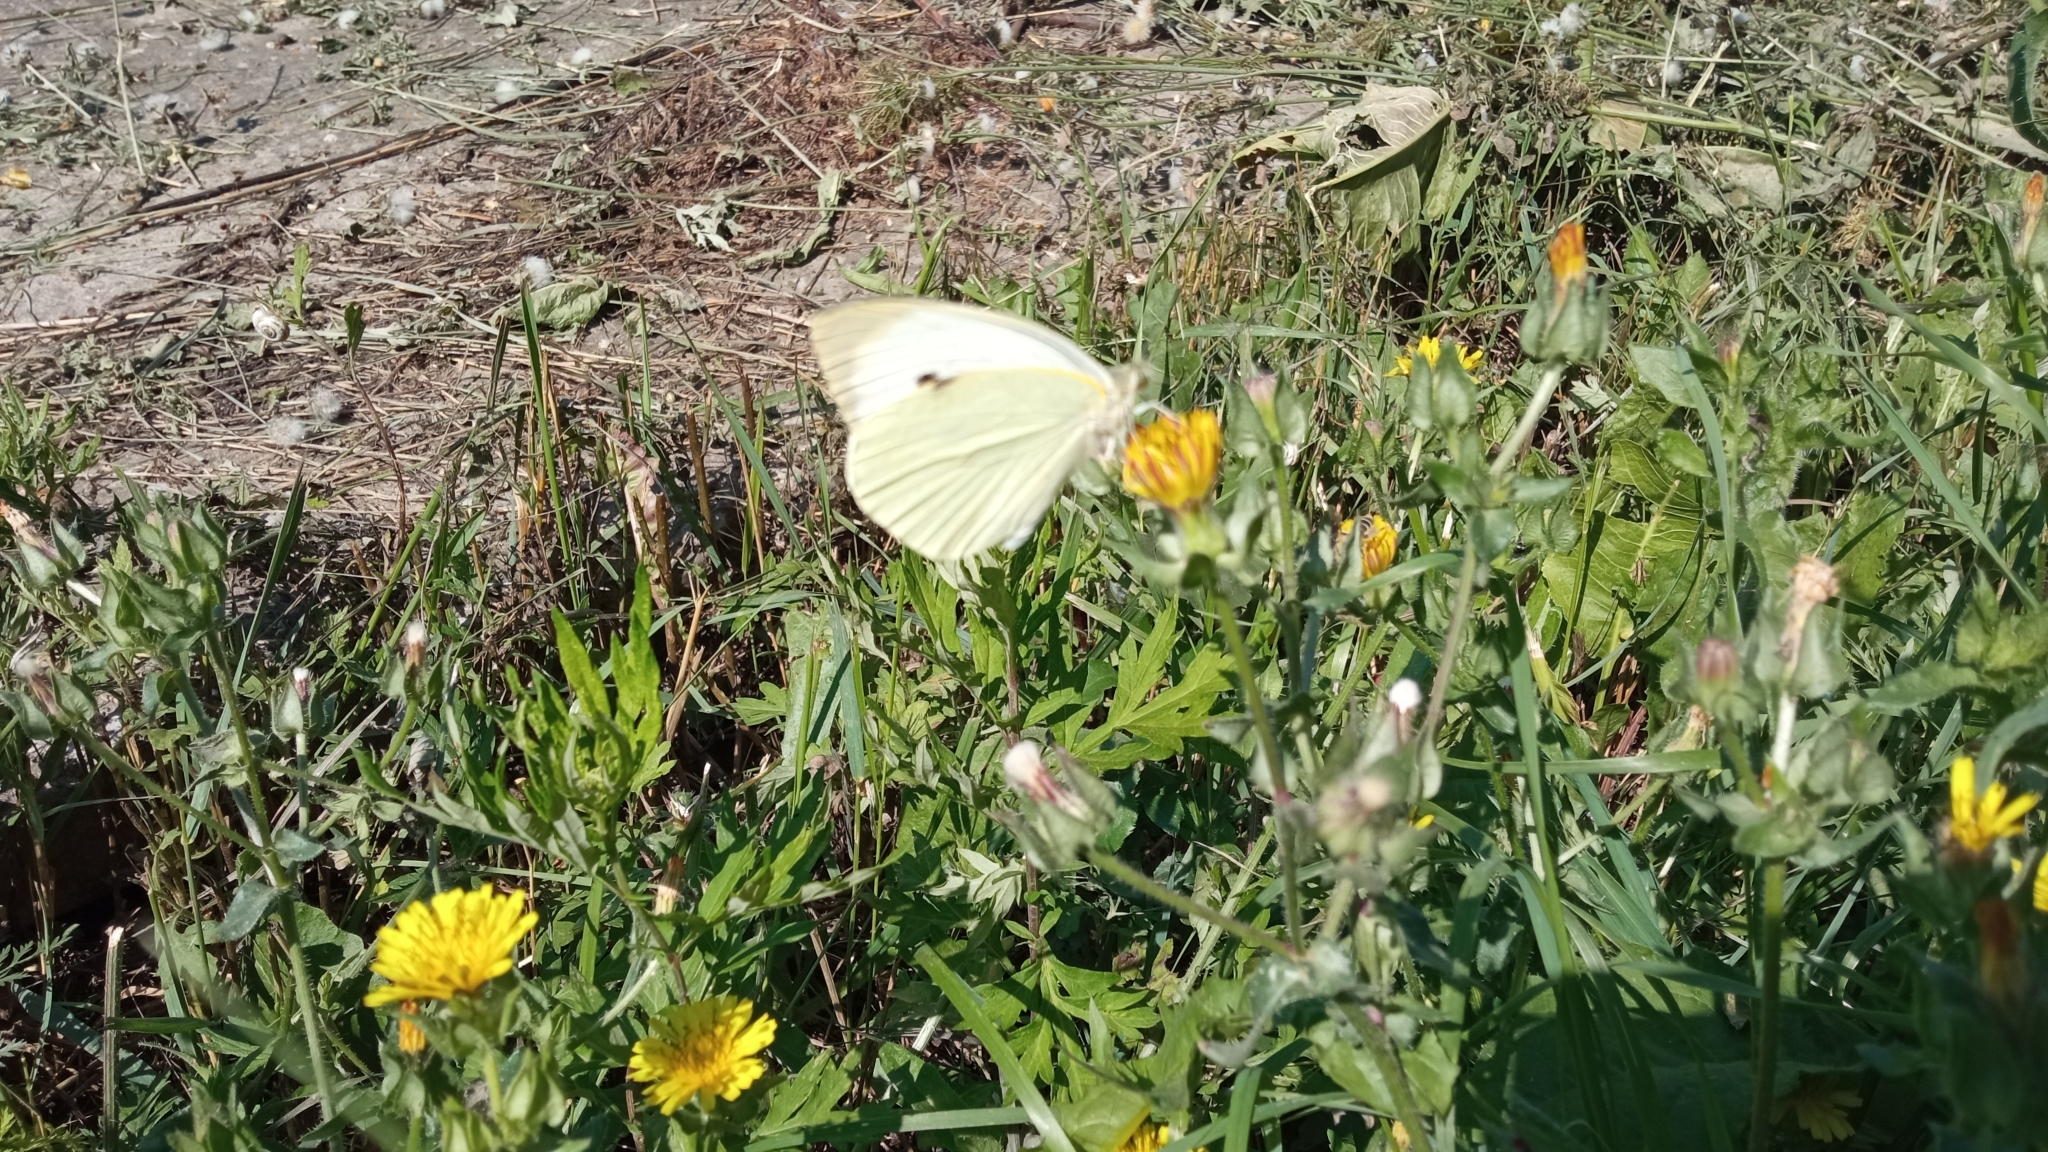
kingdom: Animalia
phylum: Arthropoda
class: Insecta
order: Lepidoptera
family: Pieridae
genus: Pieris
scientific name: Pieris brassicae
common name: Large white
